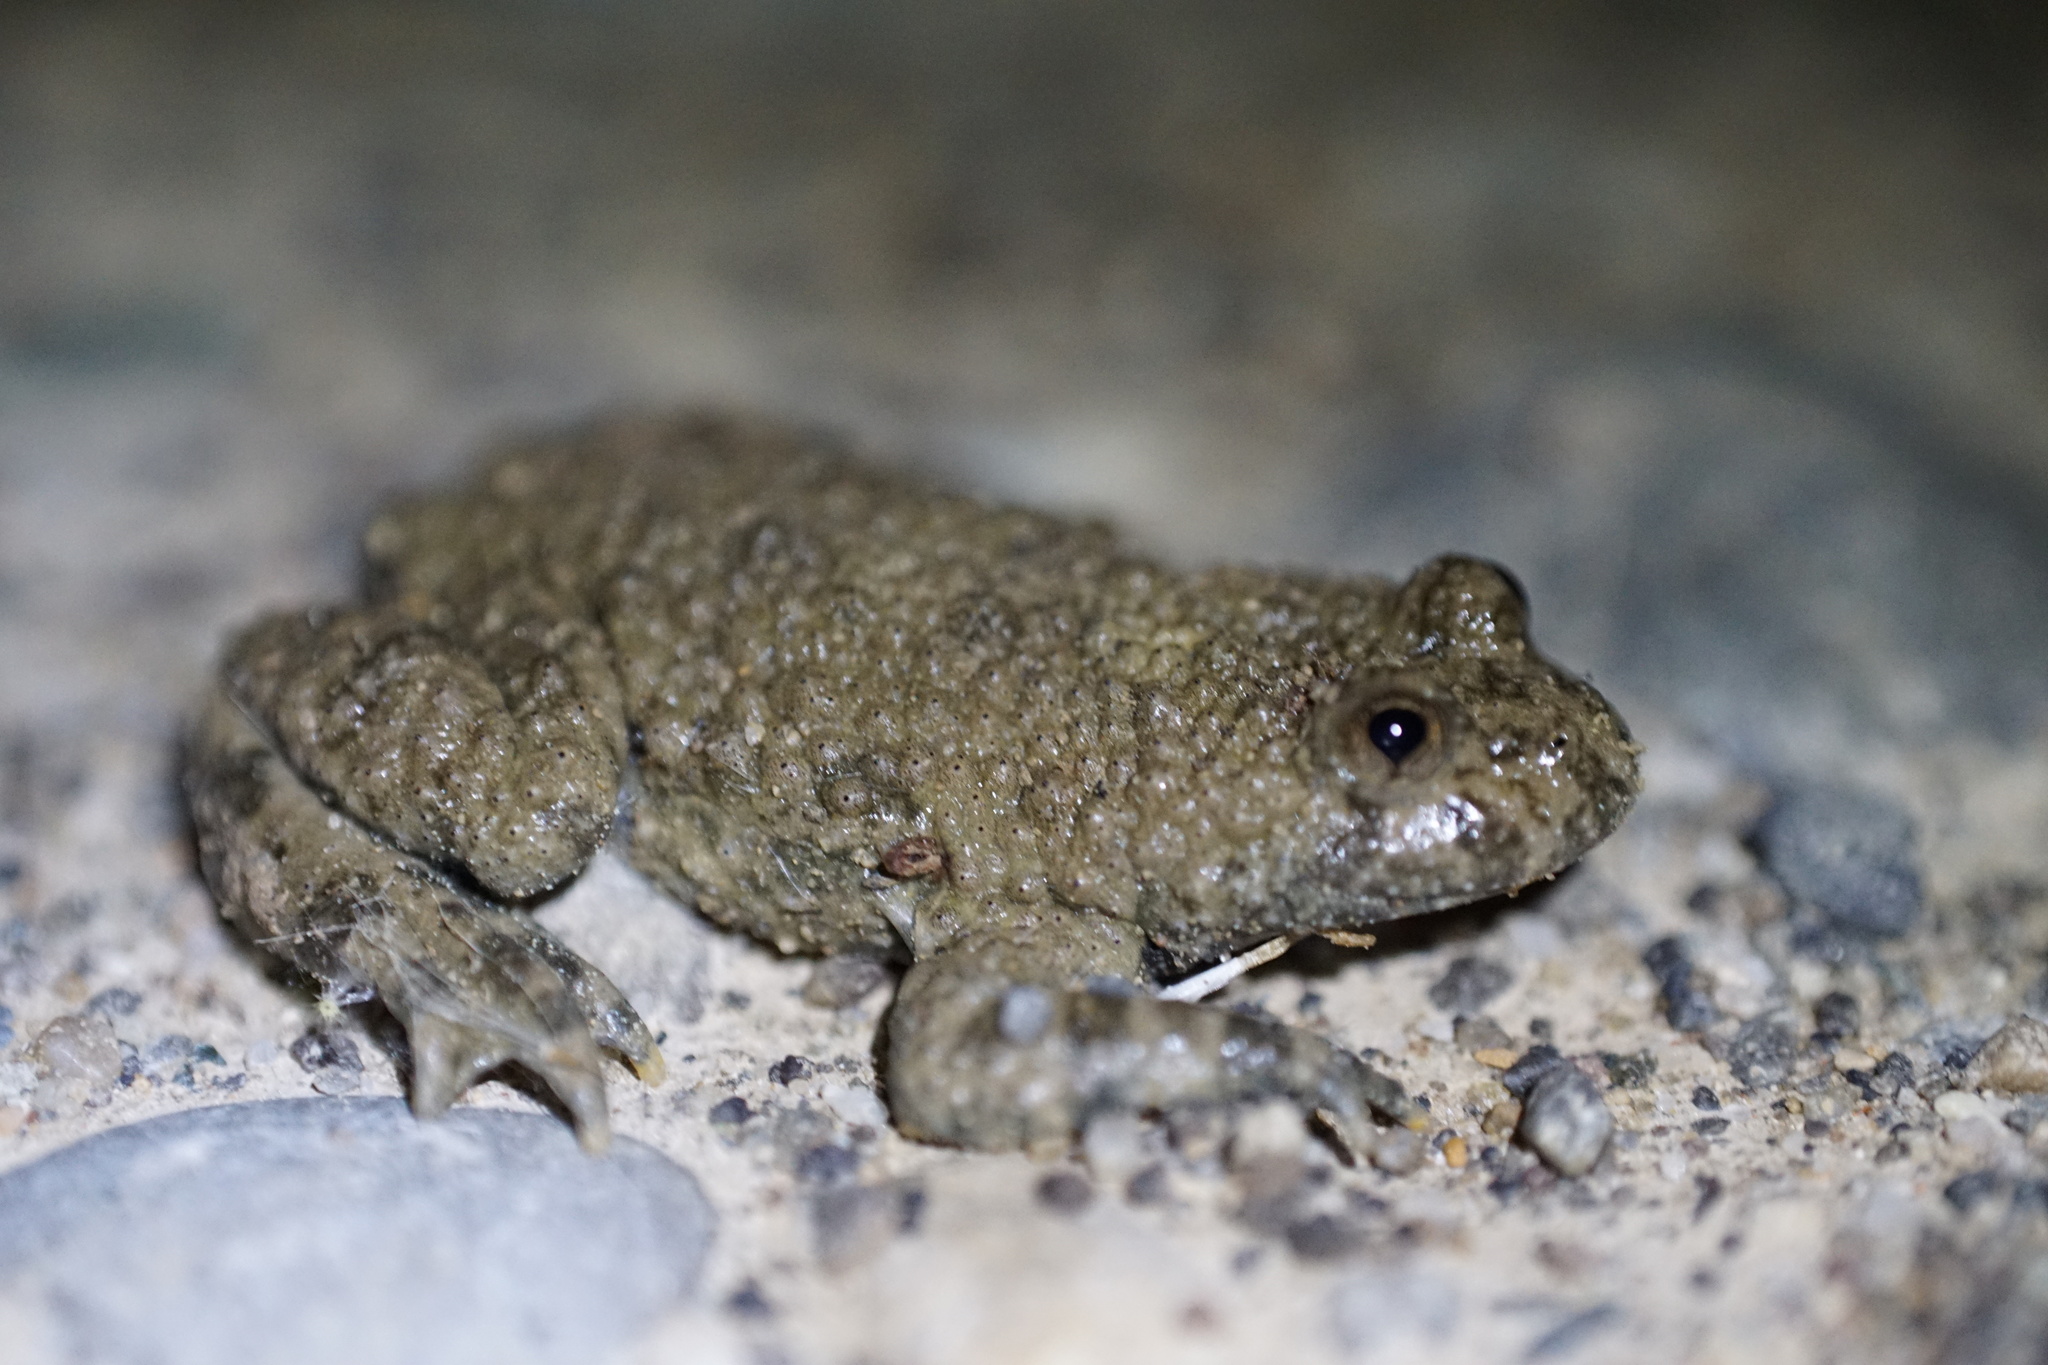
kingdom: Animalia
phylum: Chordata
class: Amphibia
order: Anura
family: Bombinatoridae
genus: Bombina
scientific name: Bombina variegata
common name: Yellow-bellied toad
